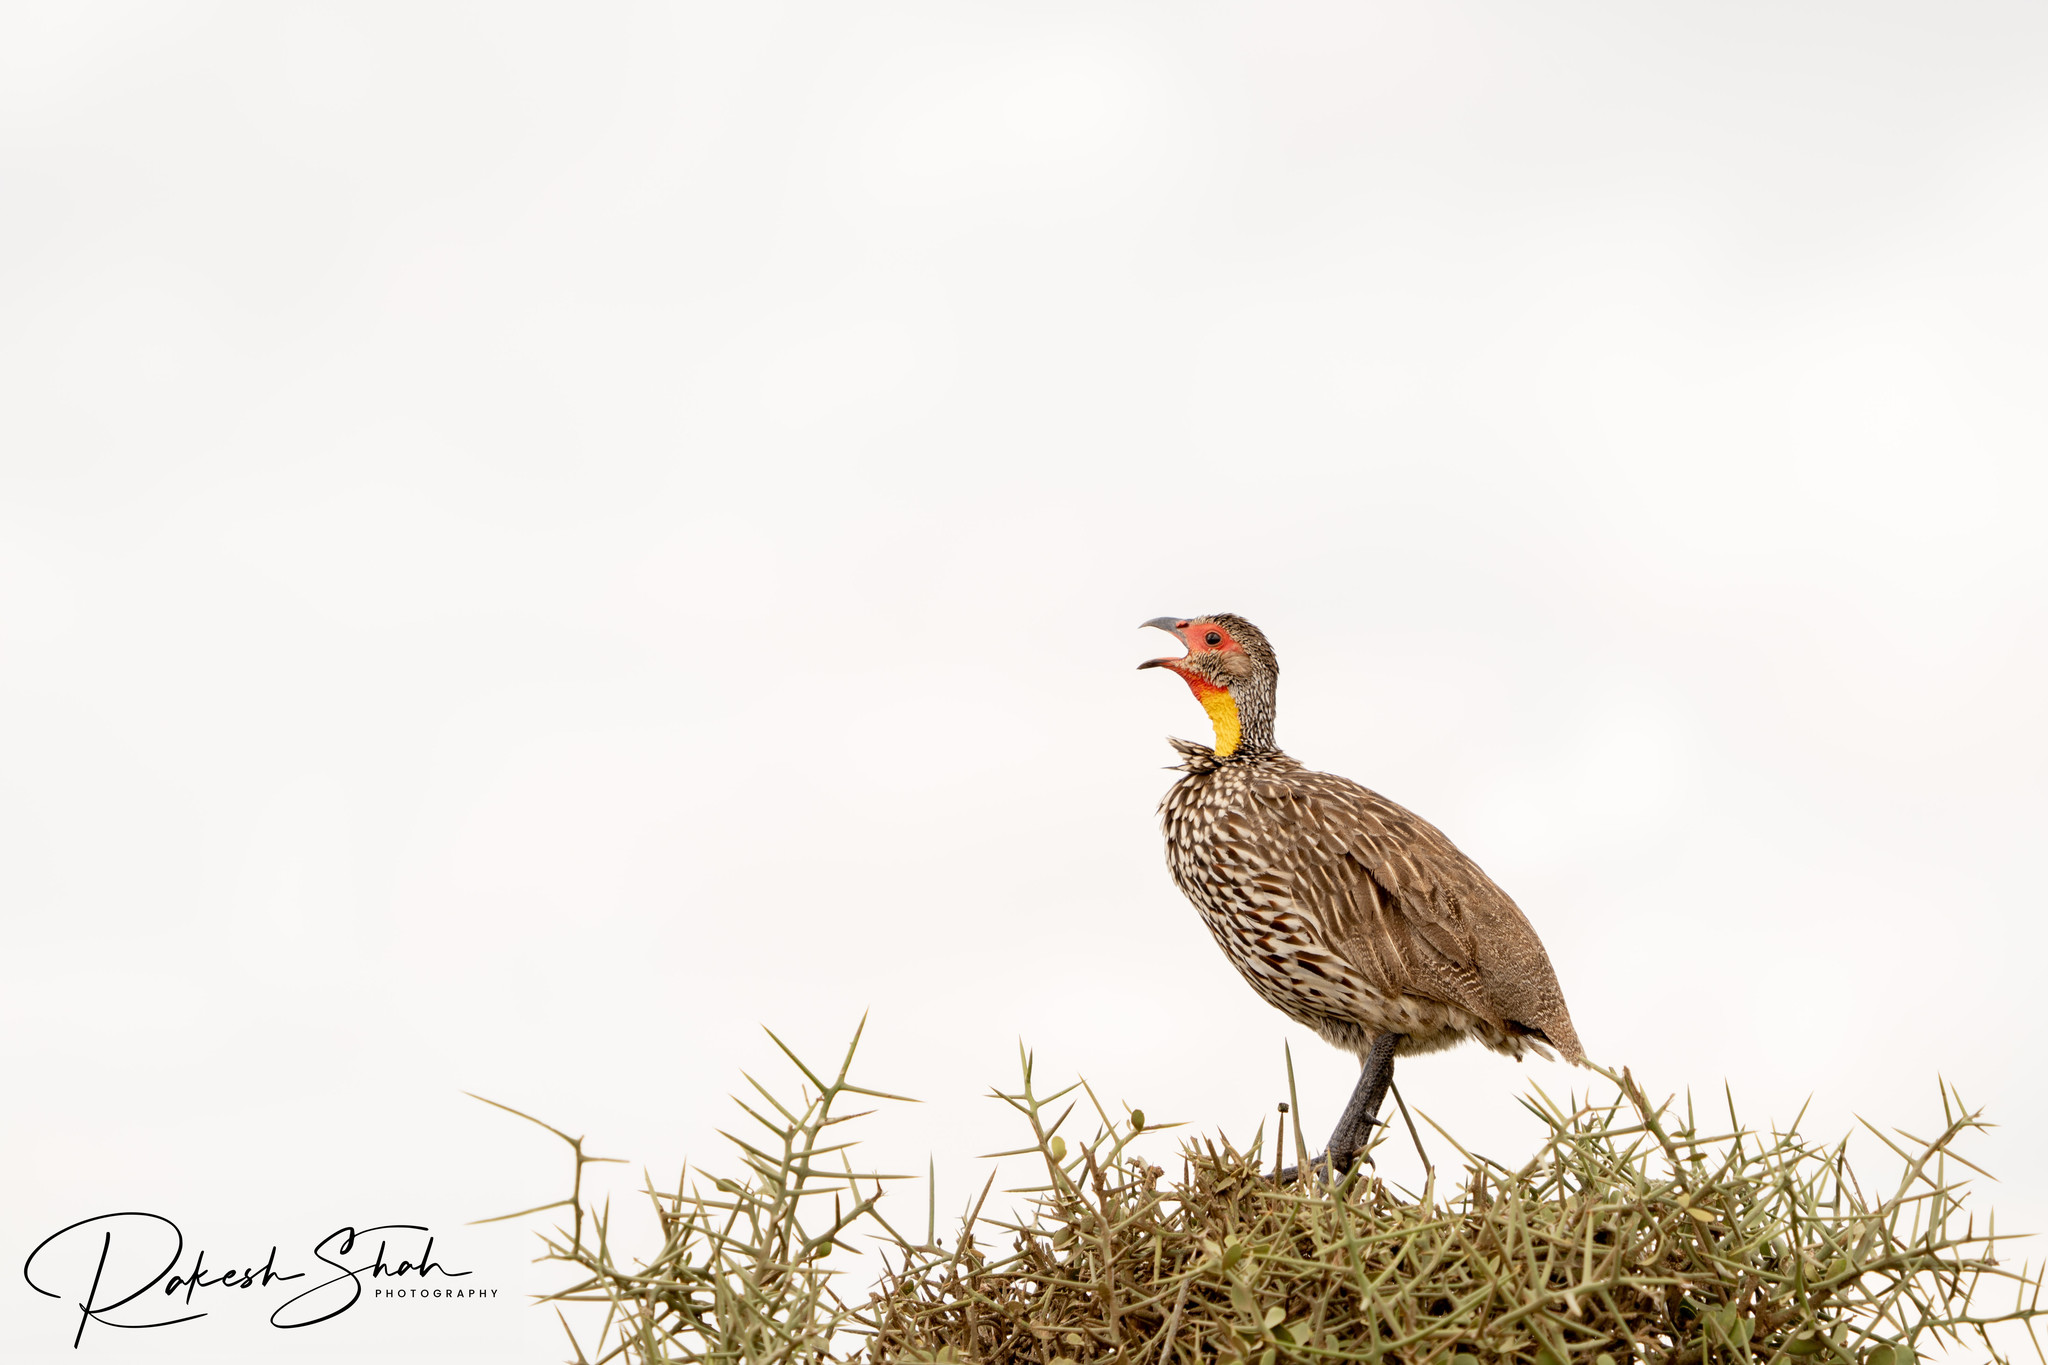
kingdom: Animalia
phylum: Chordata
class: Aves
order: Galliformes
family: Phasianidae
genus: Pternistis
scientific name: Pternistis leucoscepus
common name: Yellow-necked spurfowl
